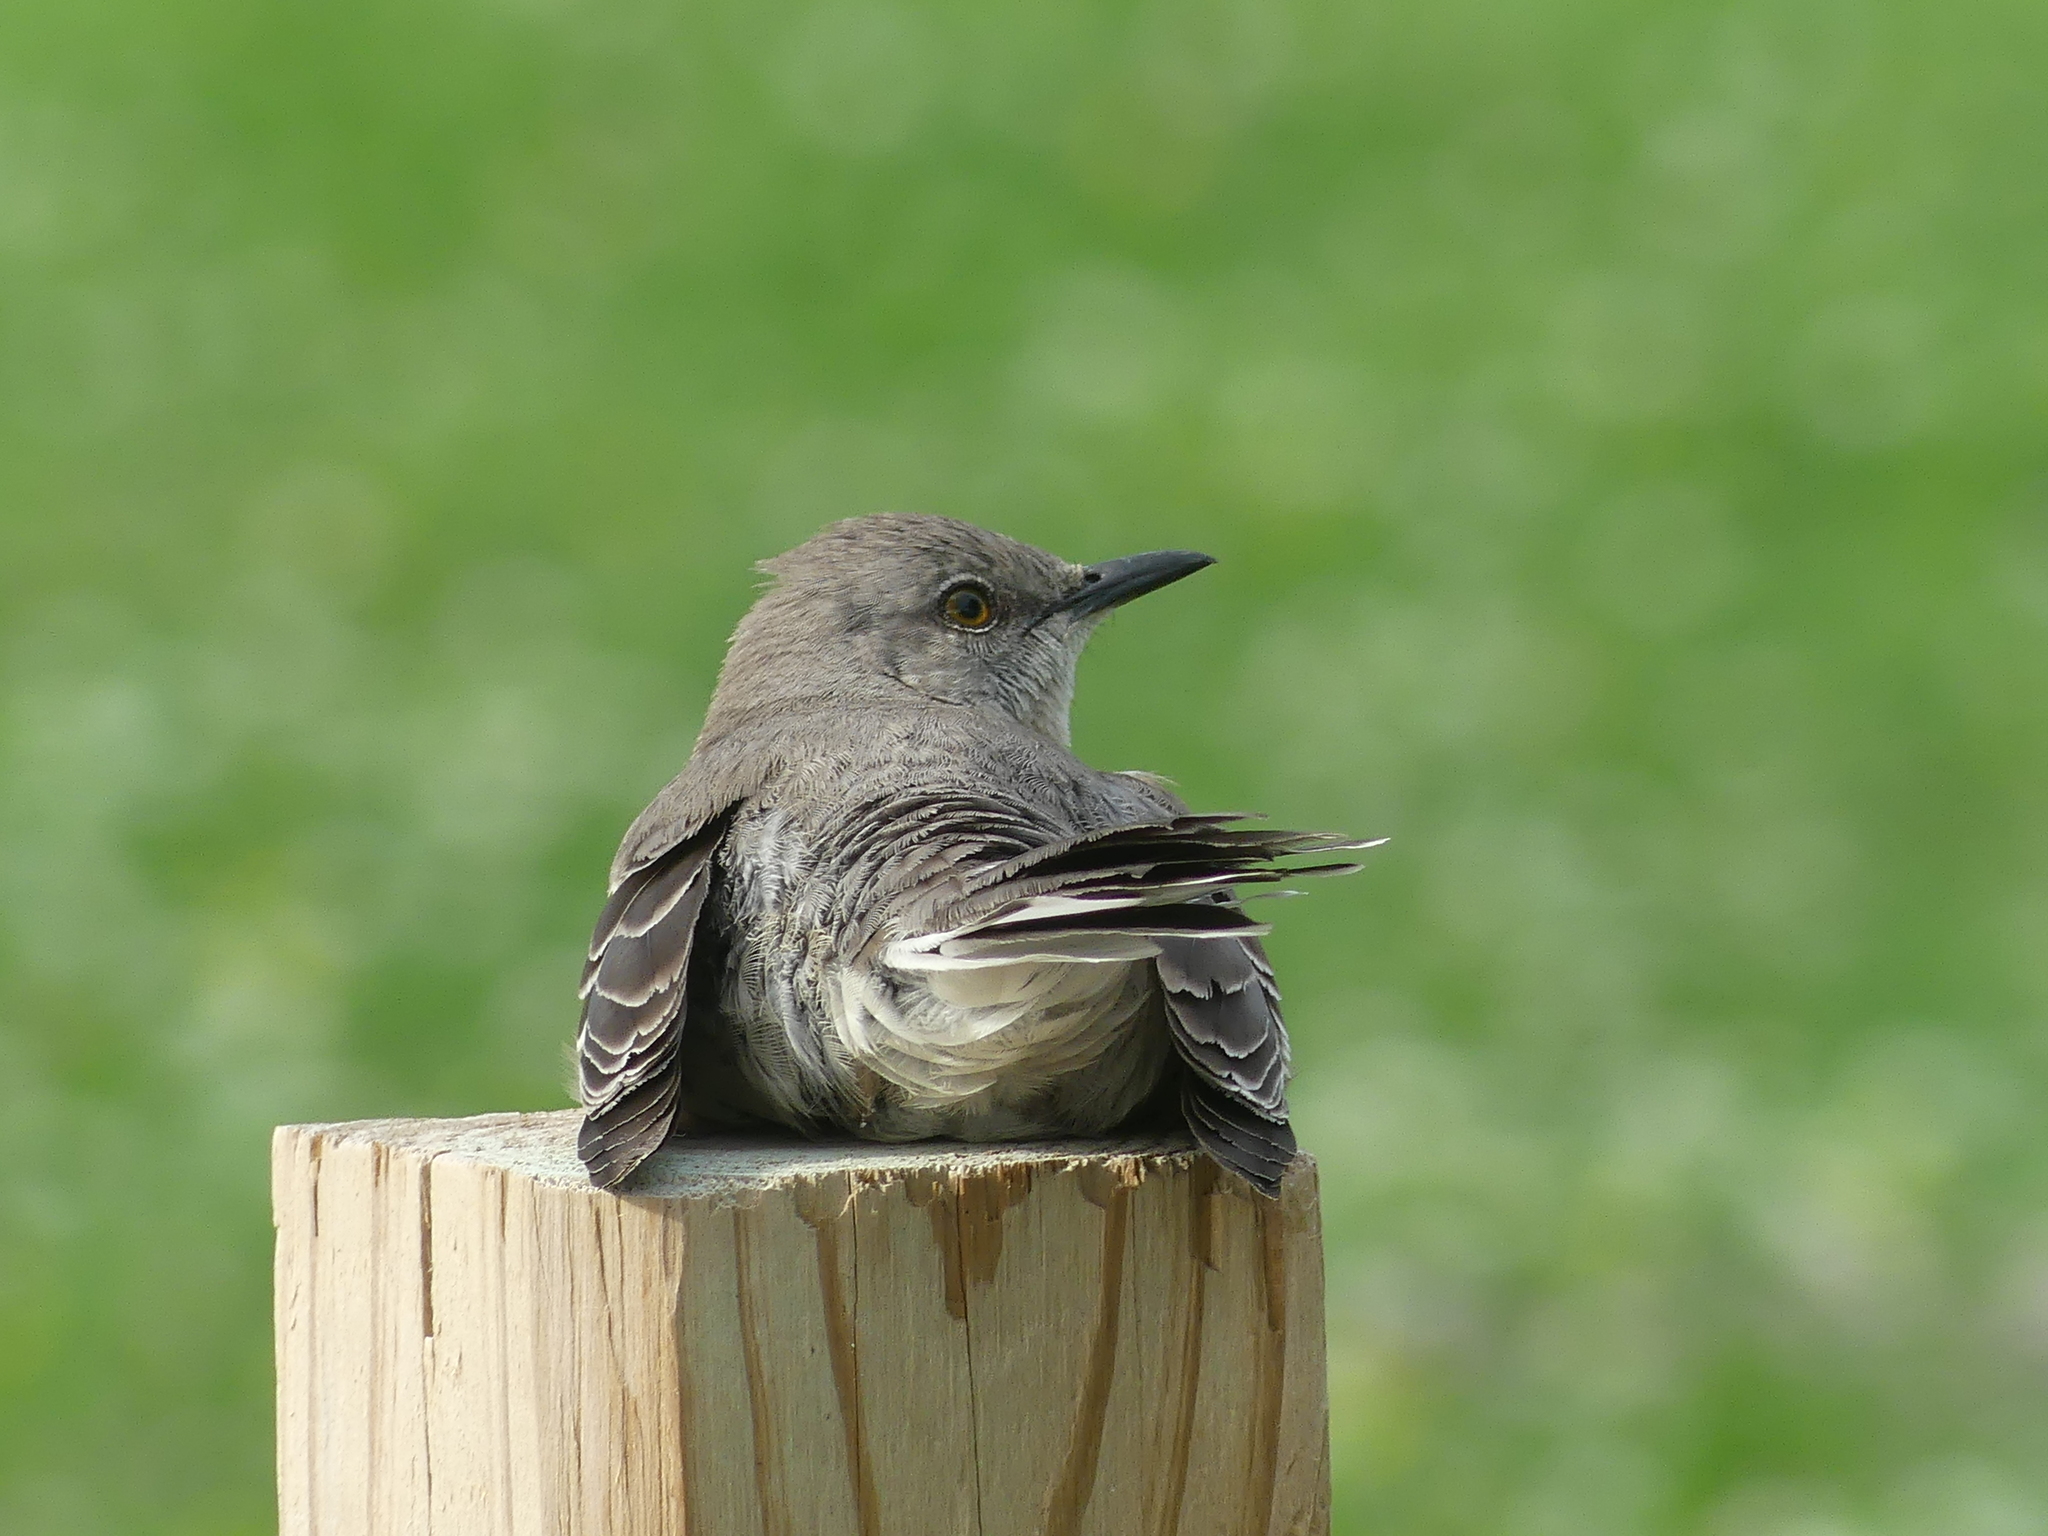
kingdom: Animalia
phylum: Chordata
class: Aves
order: Passeriformes
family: Mimidae
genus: Mimus
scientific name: Mimus polyglottos
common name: Northern mockingbird
